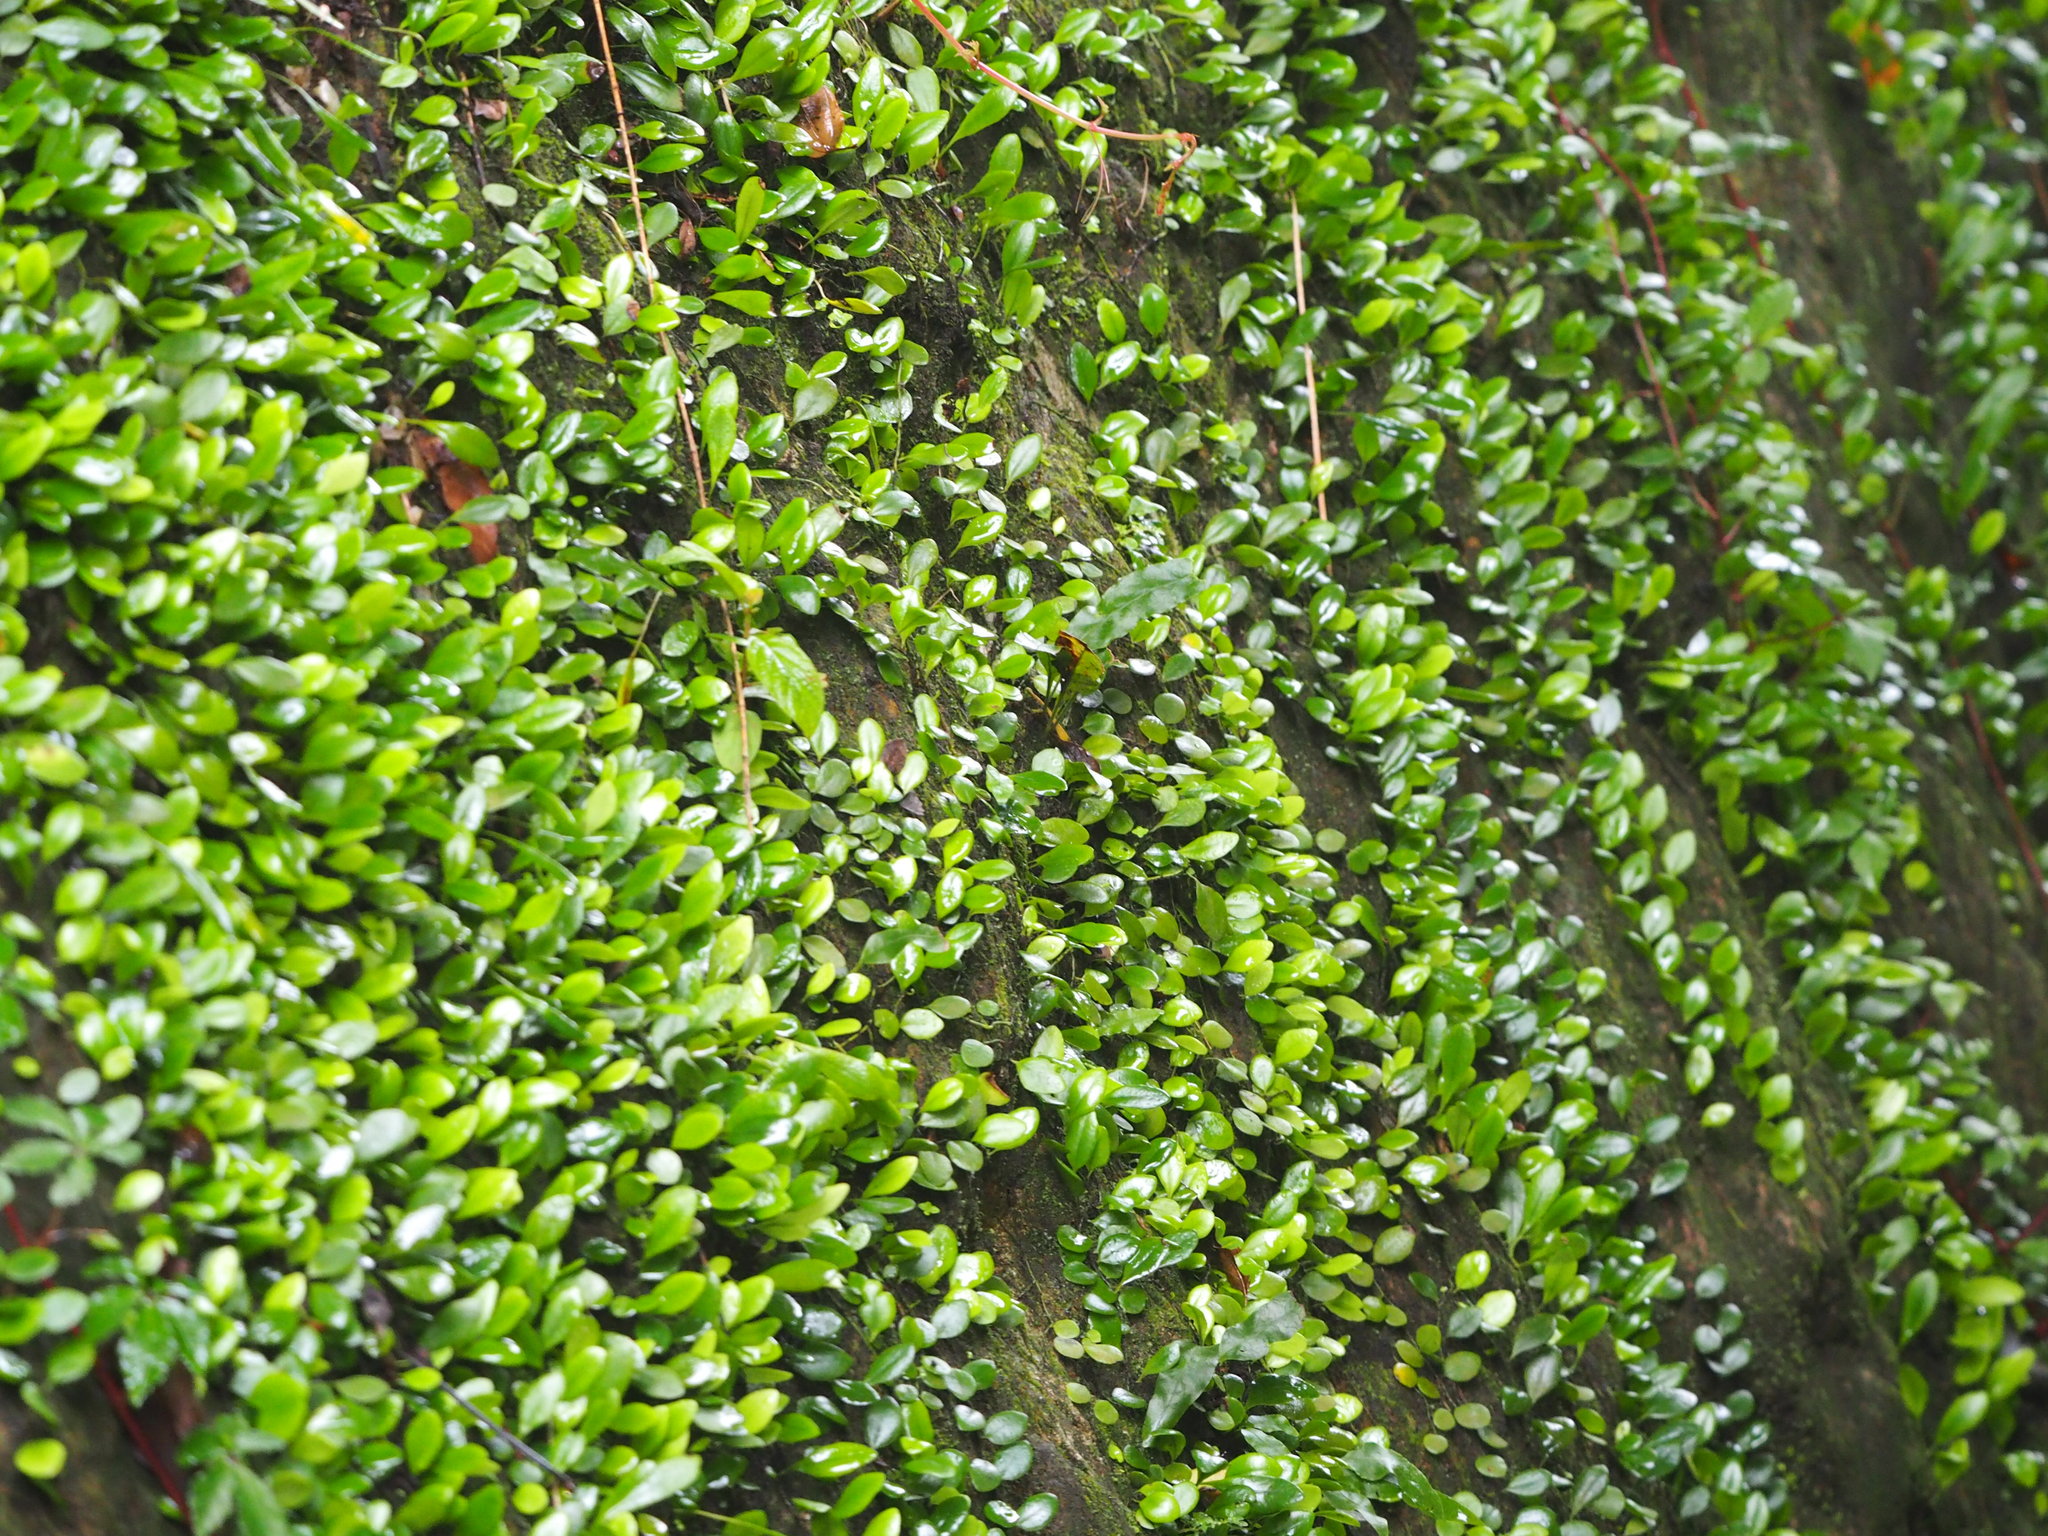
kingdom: Plantae
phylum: Tracheophyta
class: Polypodiopsida
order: Polypodiales
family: Polypodiaceae
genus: Lepisorus
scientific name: Lepisorus microphyllus
